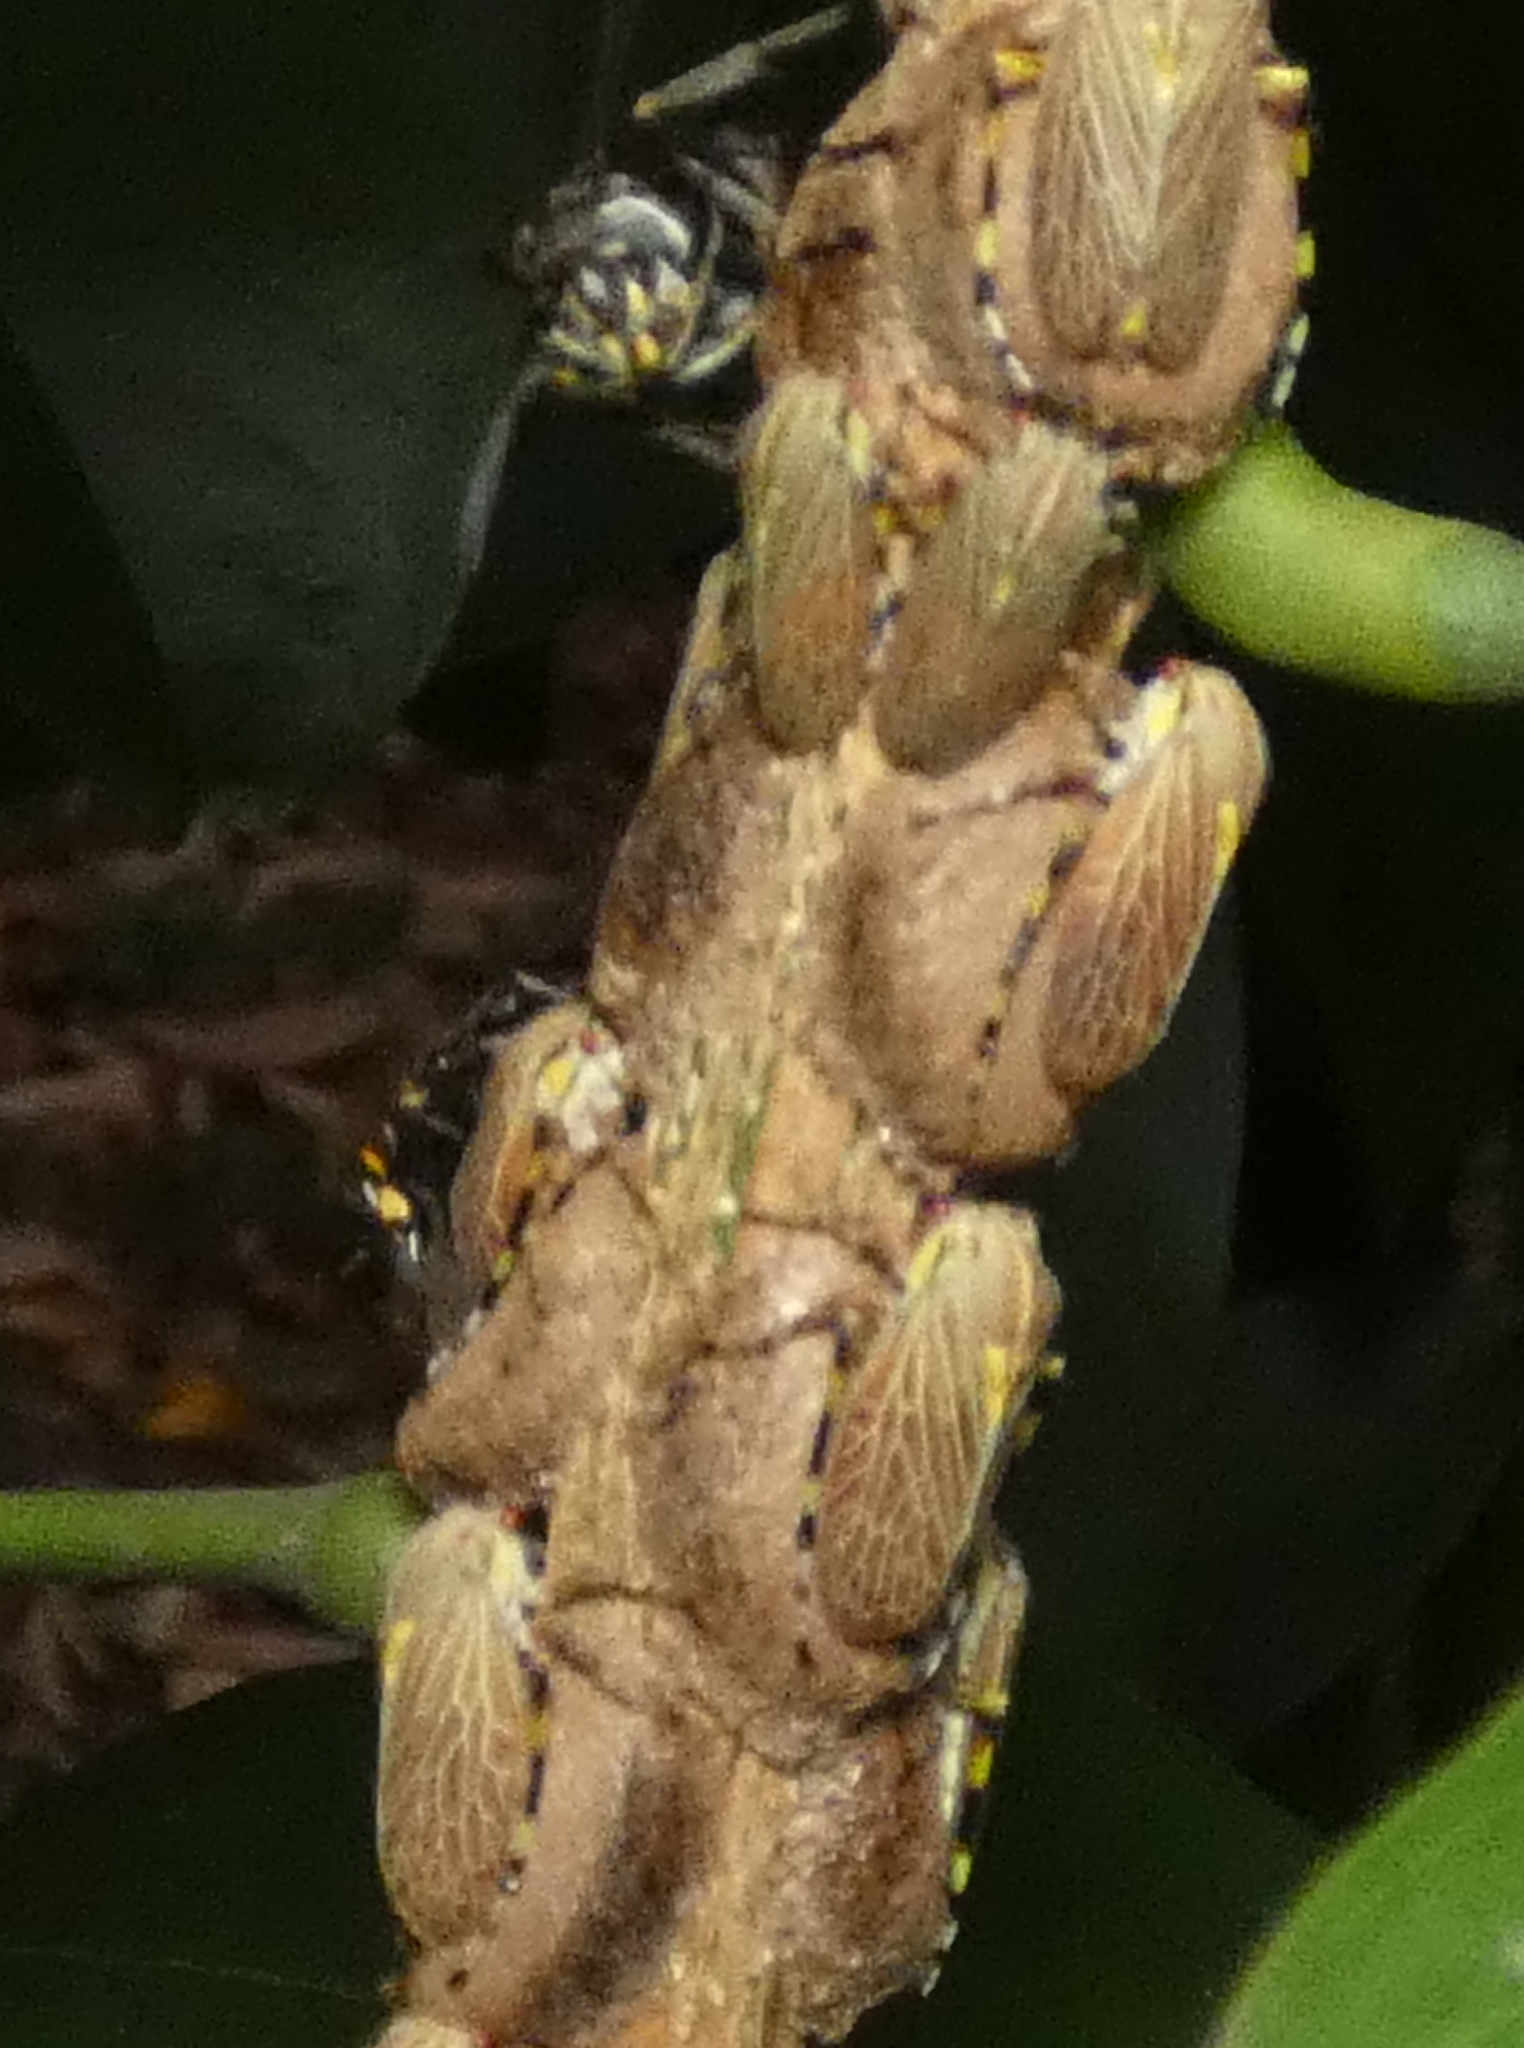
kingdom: Animalia
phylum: Arthropoda
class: Insecta
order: Hemiptera
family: Aetalionidae
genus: Aetalion
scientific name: Aetalion reticulatum
